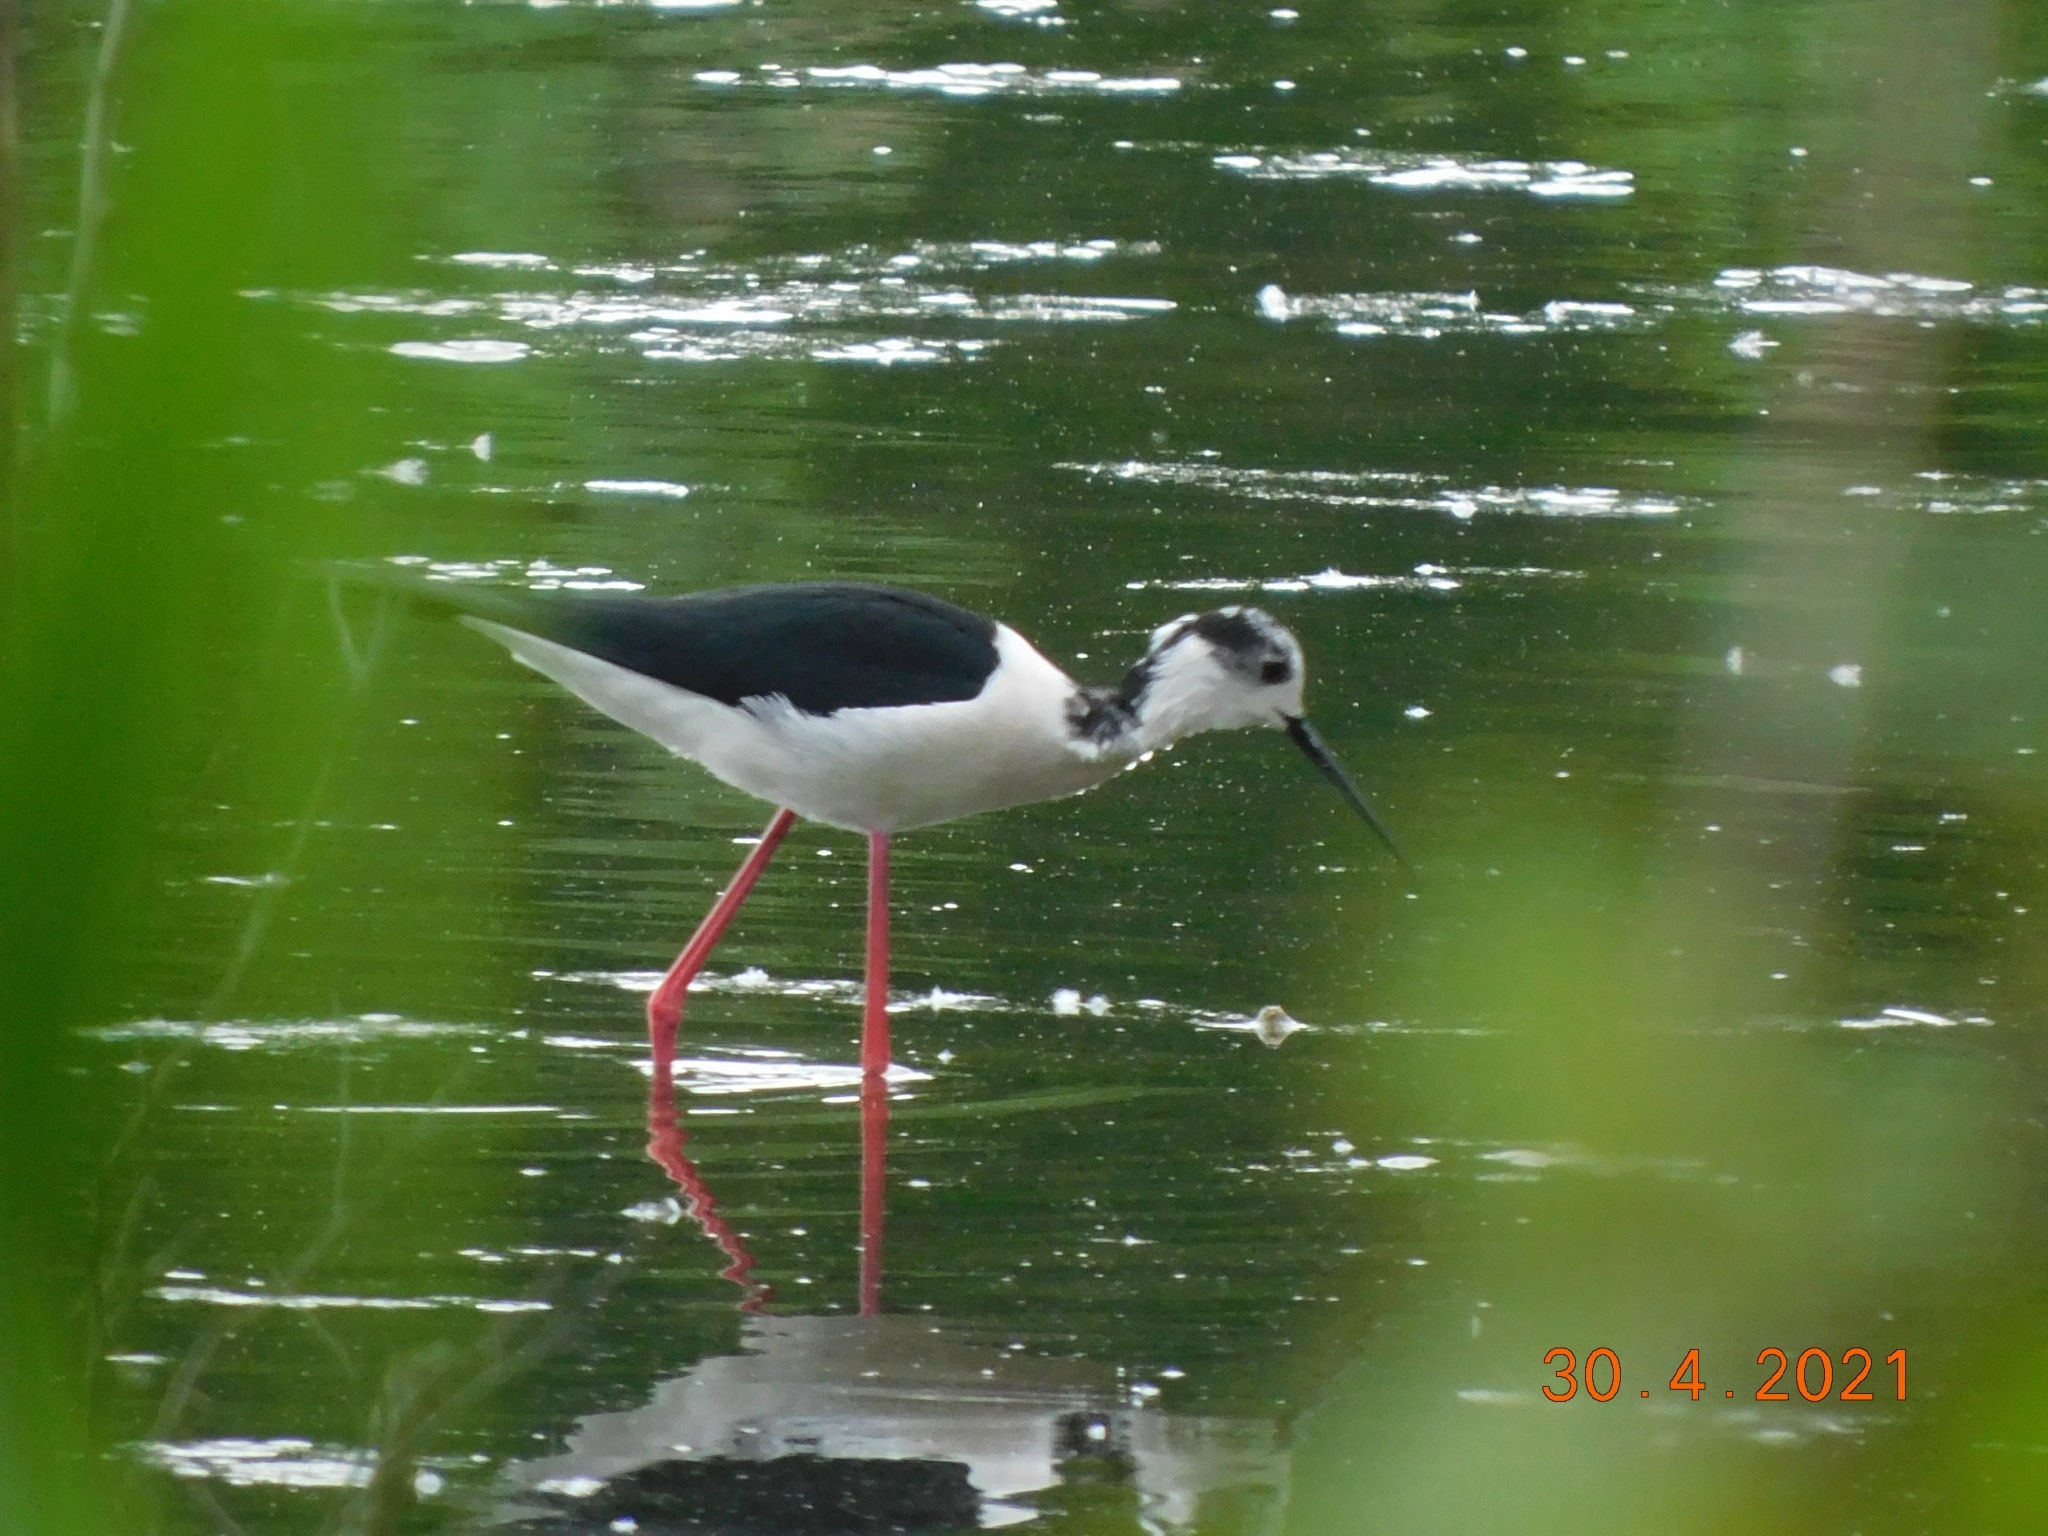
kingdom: Animalia
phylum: Chordata
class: Aves
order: Charadriiformes
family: Recurvirostridae
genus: Himantopus
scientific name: Himantopus himantopus
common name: Black-winged stilt
